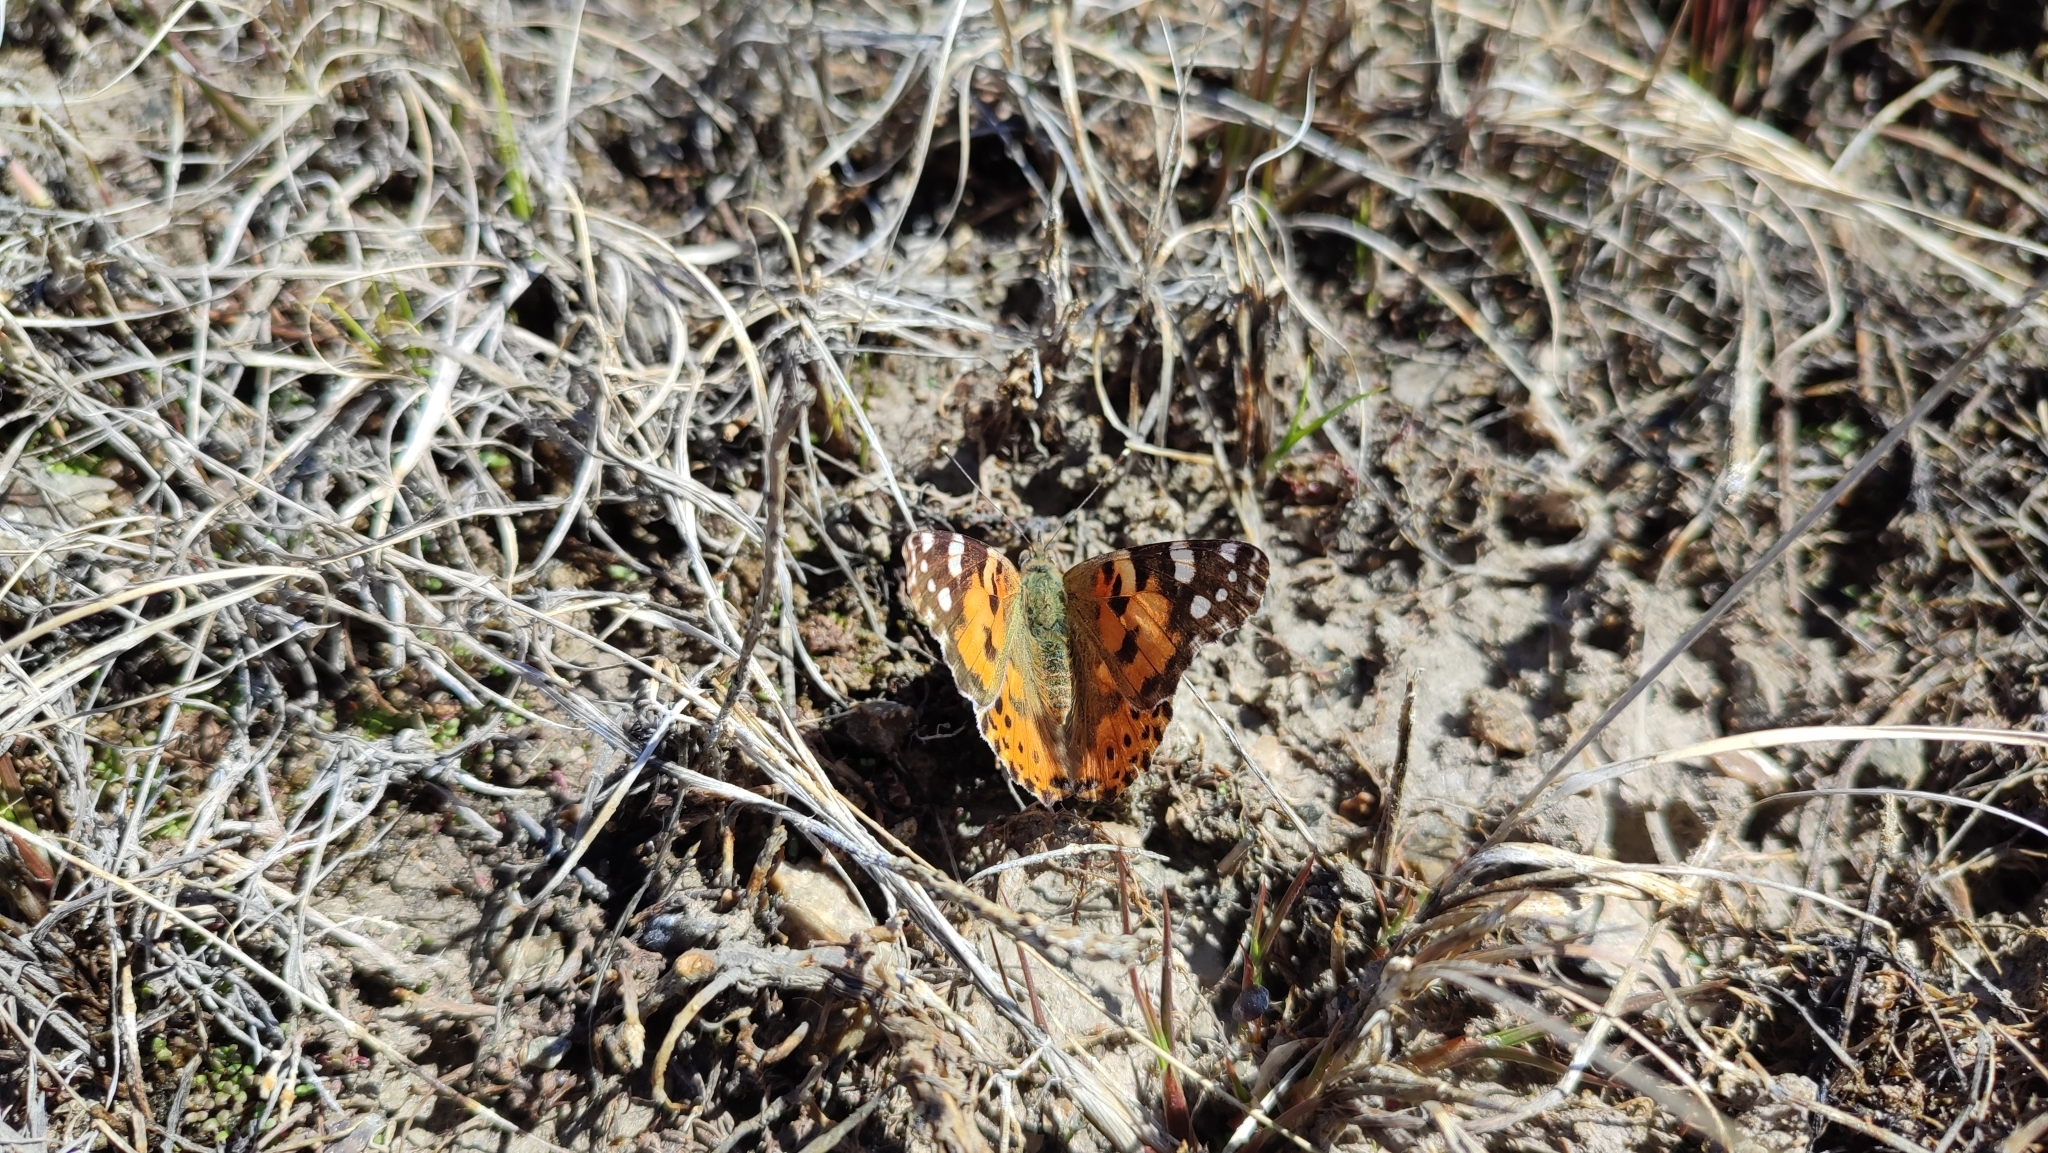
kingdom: Animalia
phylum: Arthropoda
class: Insecta
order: Lepidoptera
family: Nymphalidae
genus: Vanessa
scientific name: Vanessa cardui
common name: Painted lady
